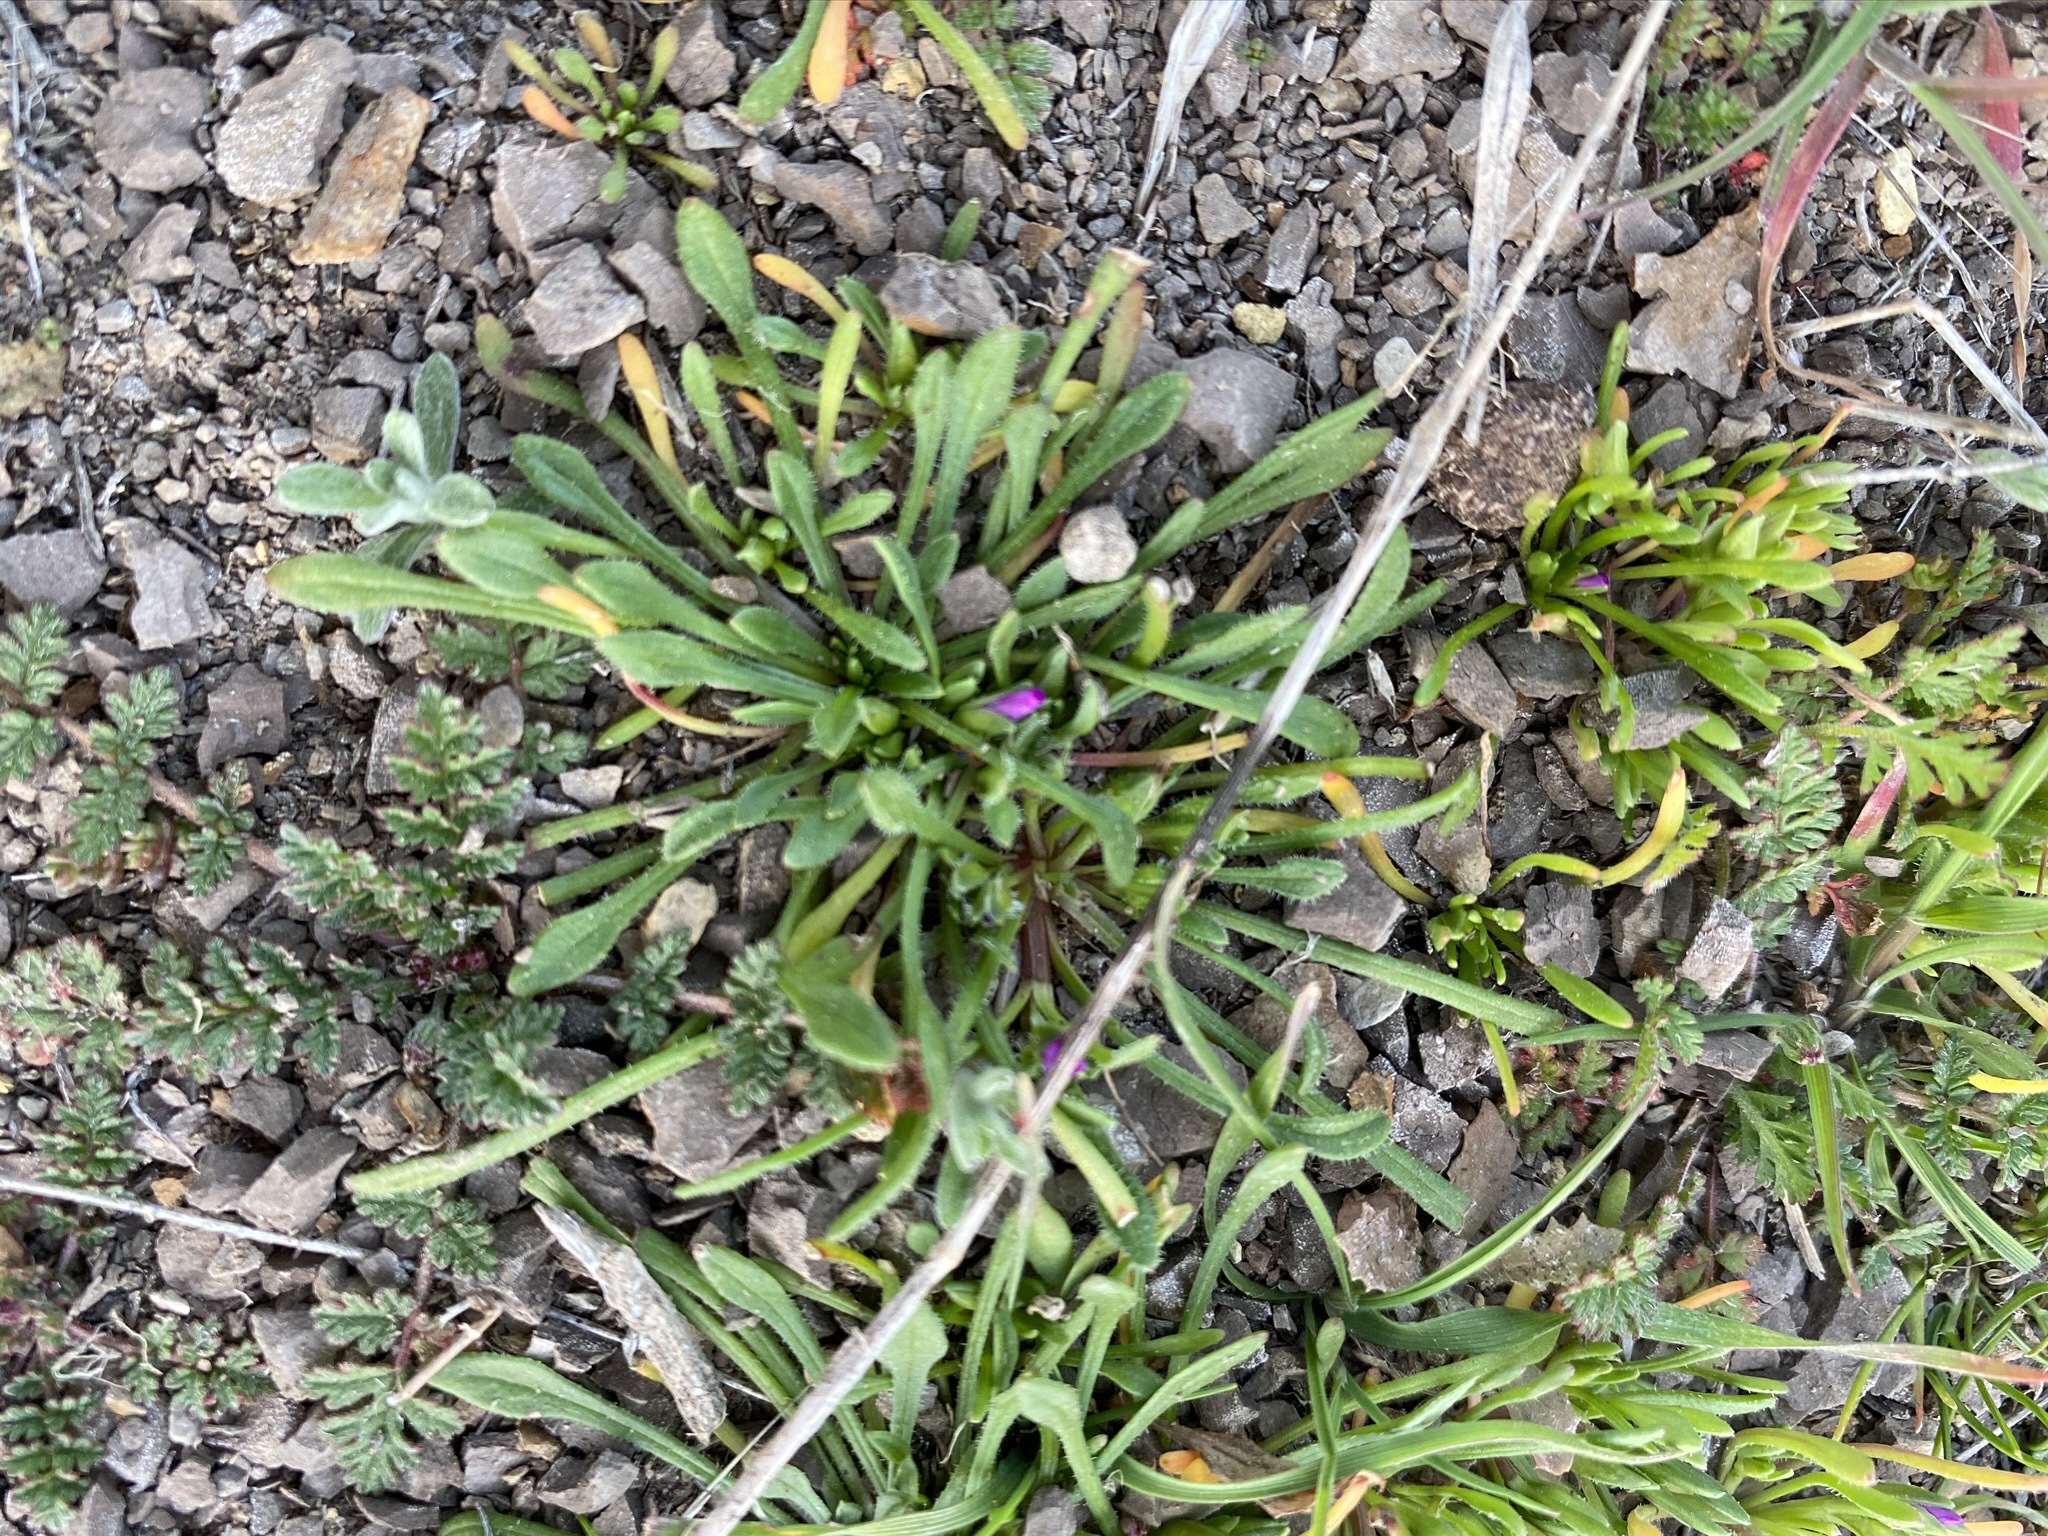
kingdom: Plantae
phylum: Tracheophyta
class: Magnoliopsida
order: Caryophyllales
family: Montiaceae
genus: Calandrinia
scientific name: Calandrinia menziesii
